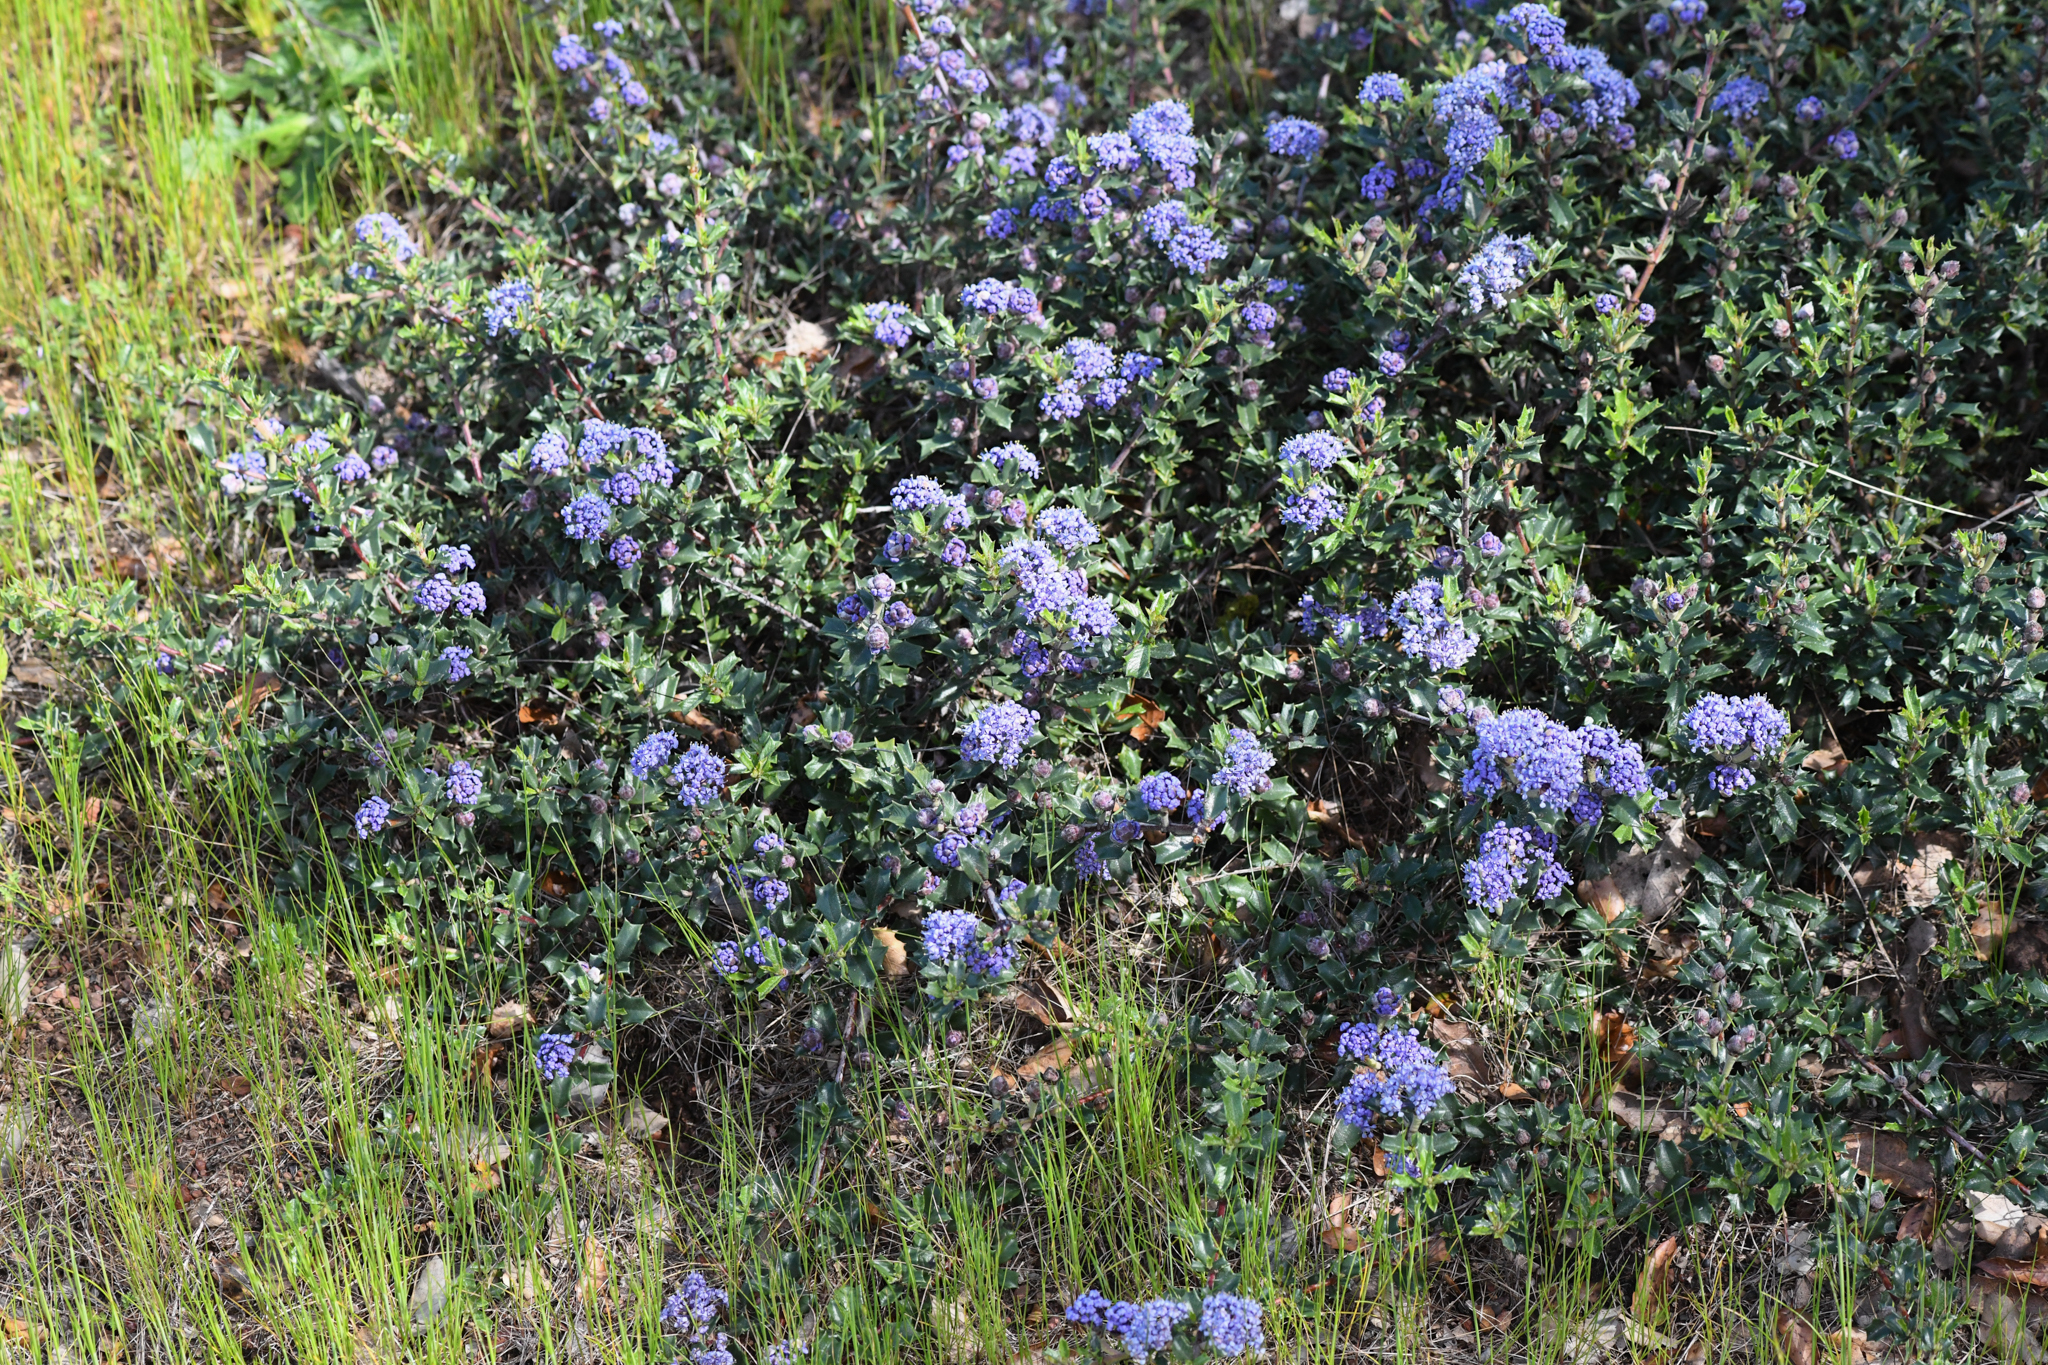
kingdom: Plantae
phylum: Tracheophyta
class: Magnoliopsida
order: Rosales
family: Rhamnaceae
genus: Ceanothus
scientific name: Ceanothus divergens
